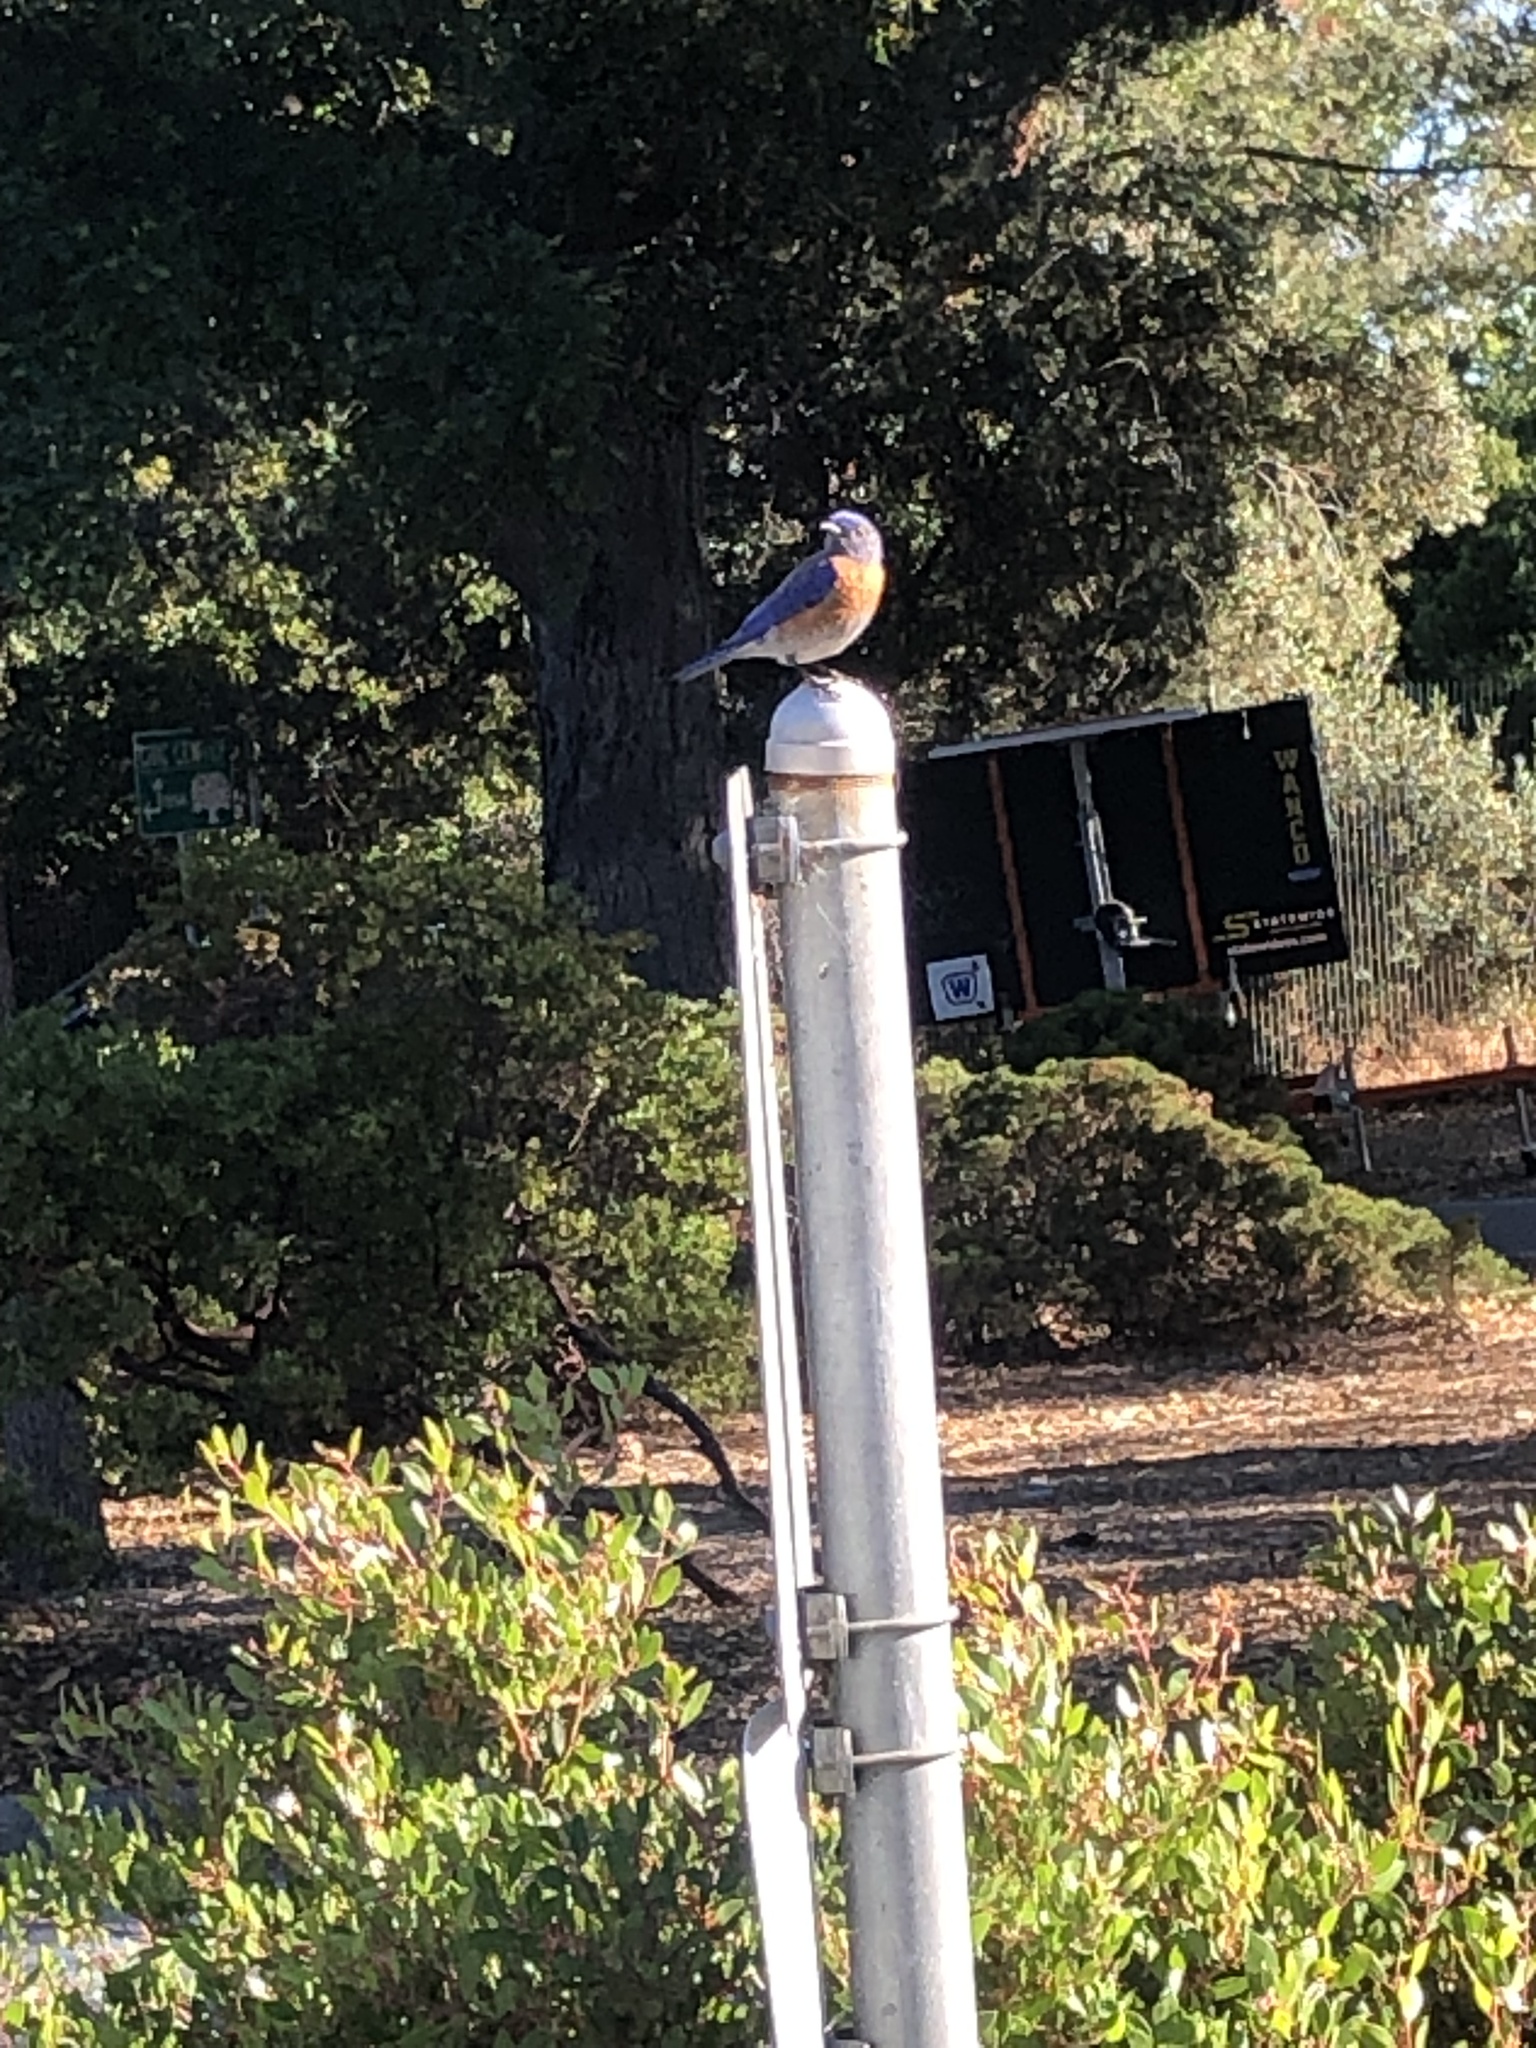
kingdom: Animalia
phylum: Chordata
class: Aves
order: Passeriformes
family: Turdidae
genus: Sialia
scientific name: Sialia mexicana
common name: Western bluebird
